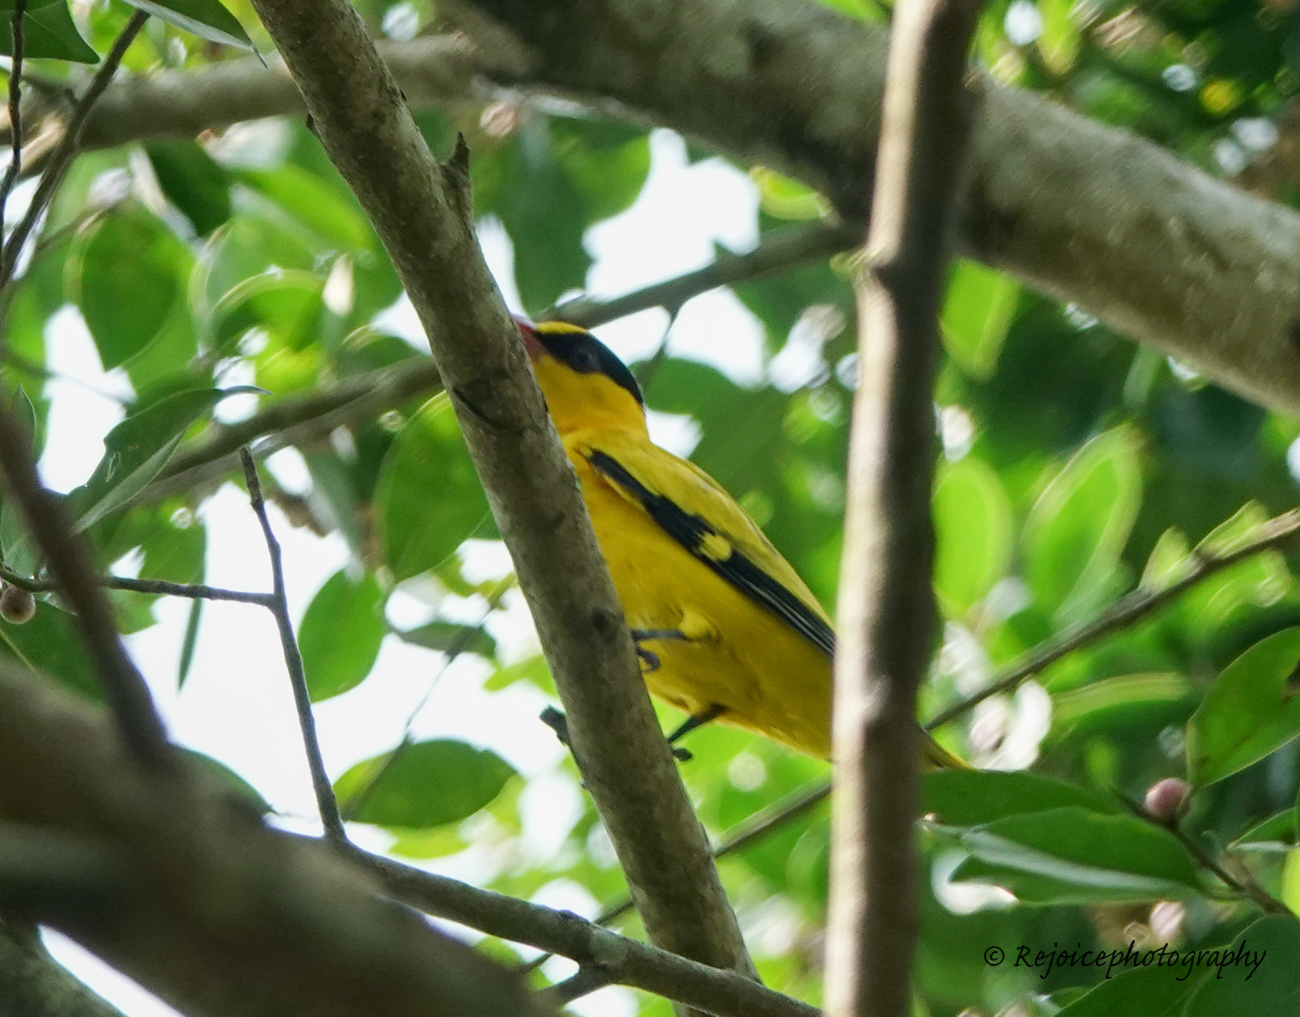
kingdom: Animalia
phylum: Chordata
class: Aves
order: Passeriformes
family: Oriolidae
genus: Oriolus
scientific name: Oriolus chinensis
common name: Black-naped oriole
